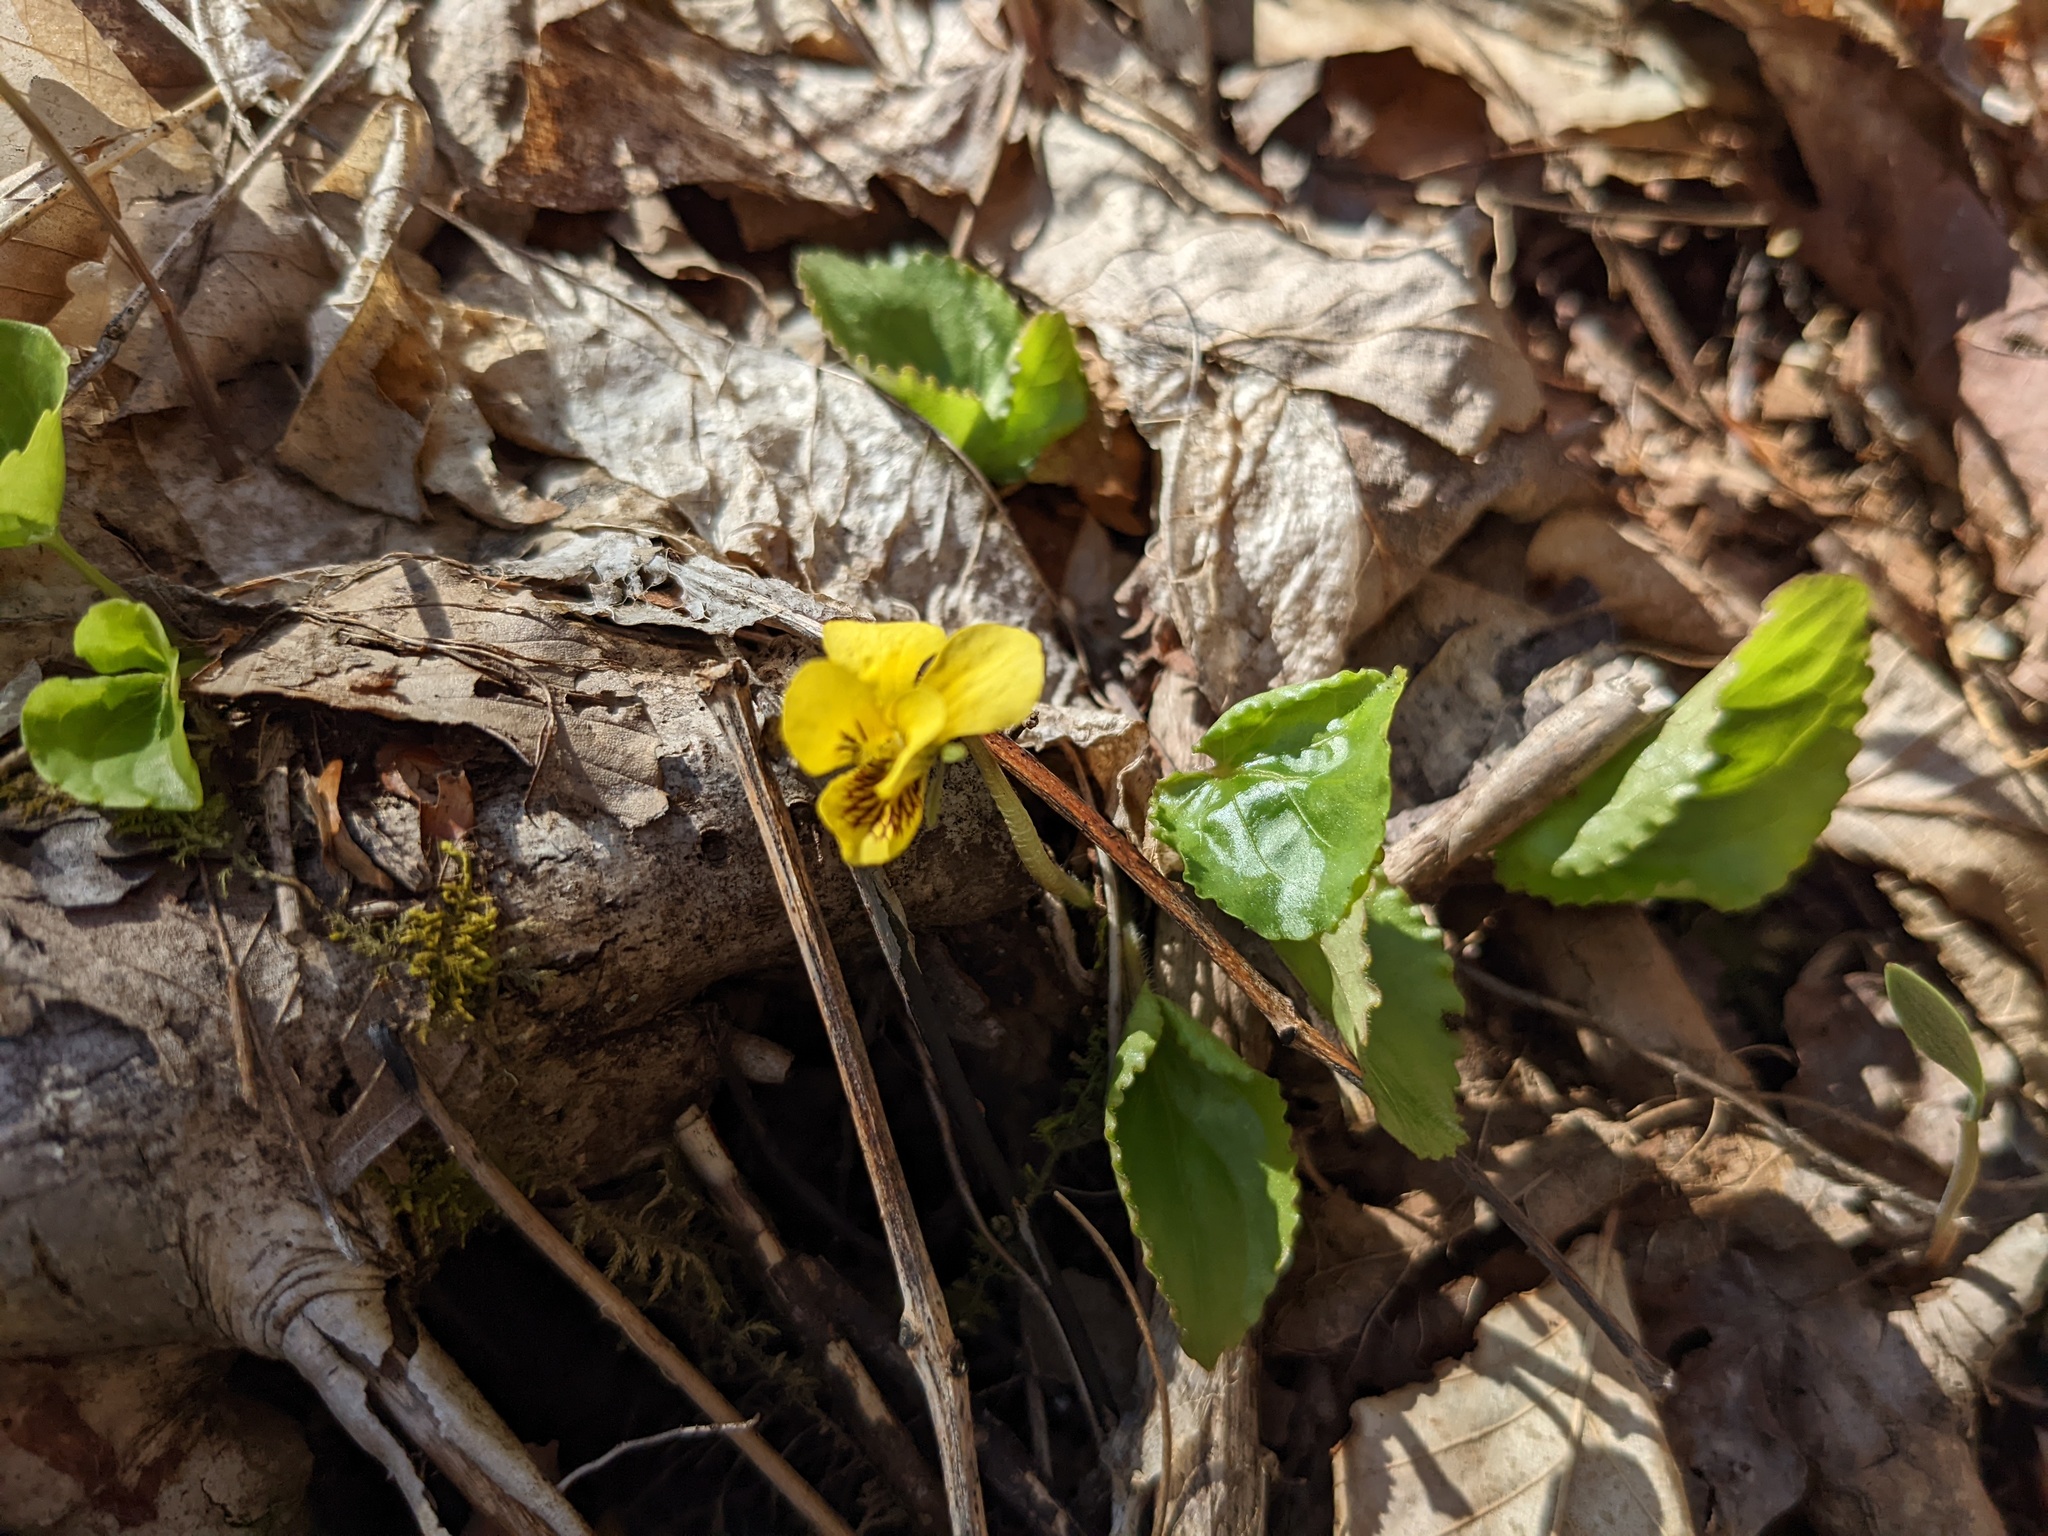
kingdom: Plantae
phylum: Tracheophyta
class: Magnoliopsida
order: Malpighiales
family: Violaceae
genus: Viola
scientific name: Viola rotundifolia
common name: Early yellow violet
